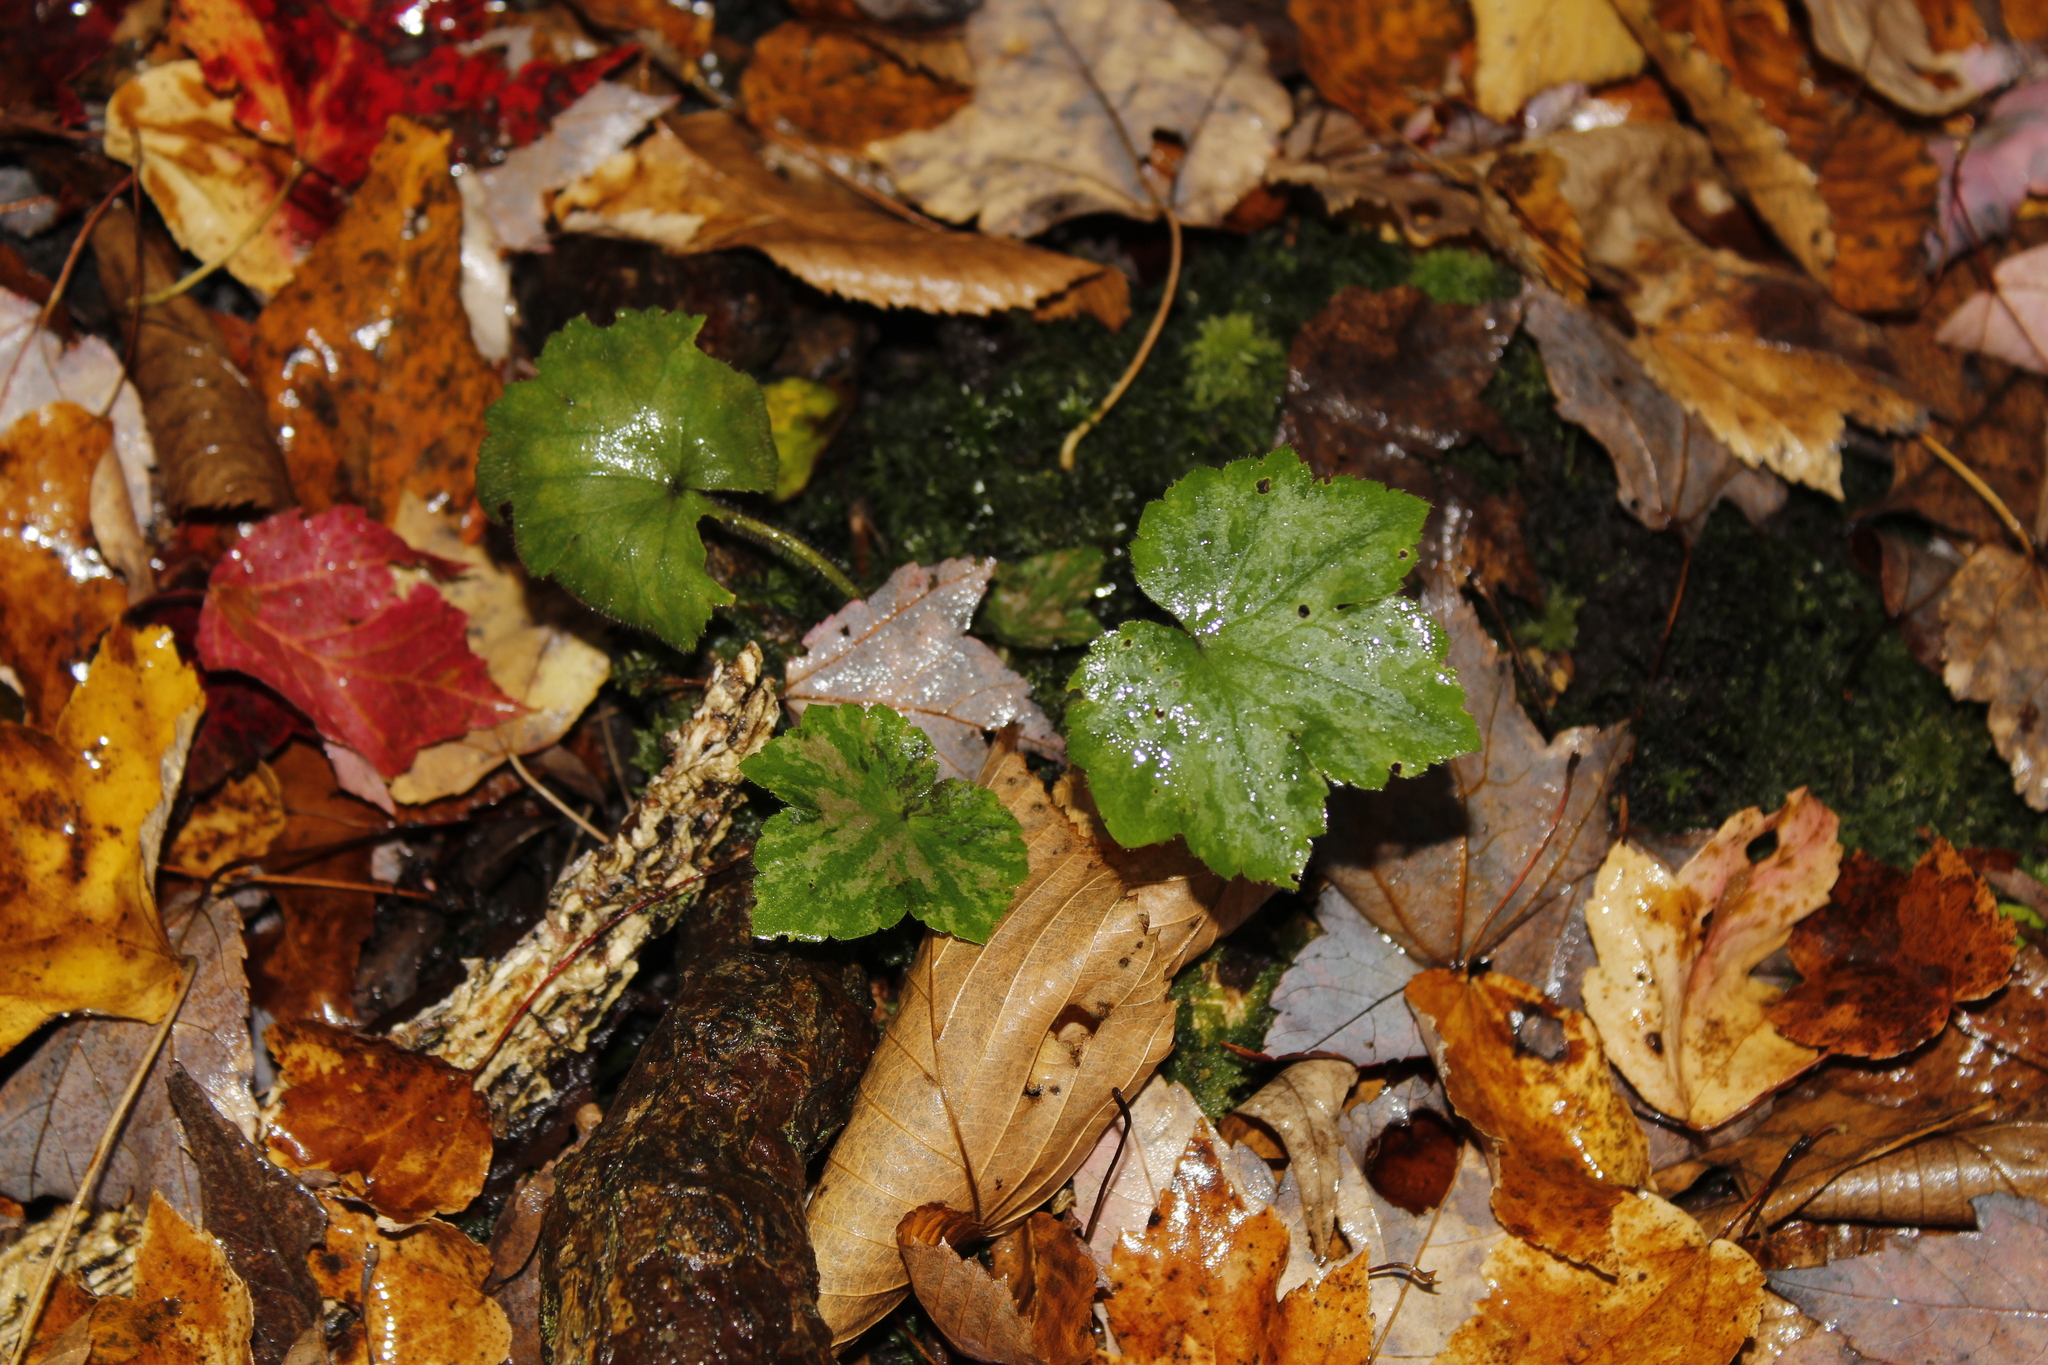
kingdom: Plantae
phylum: Tracheophyta
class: Magnoliopsida
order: Saxifragales
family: Saxifragaceae
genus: Tiarella
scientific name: Tiarella stolonifera
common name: Stoloniferous foamflower
